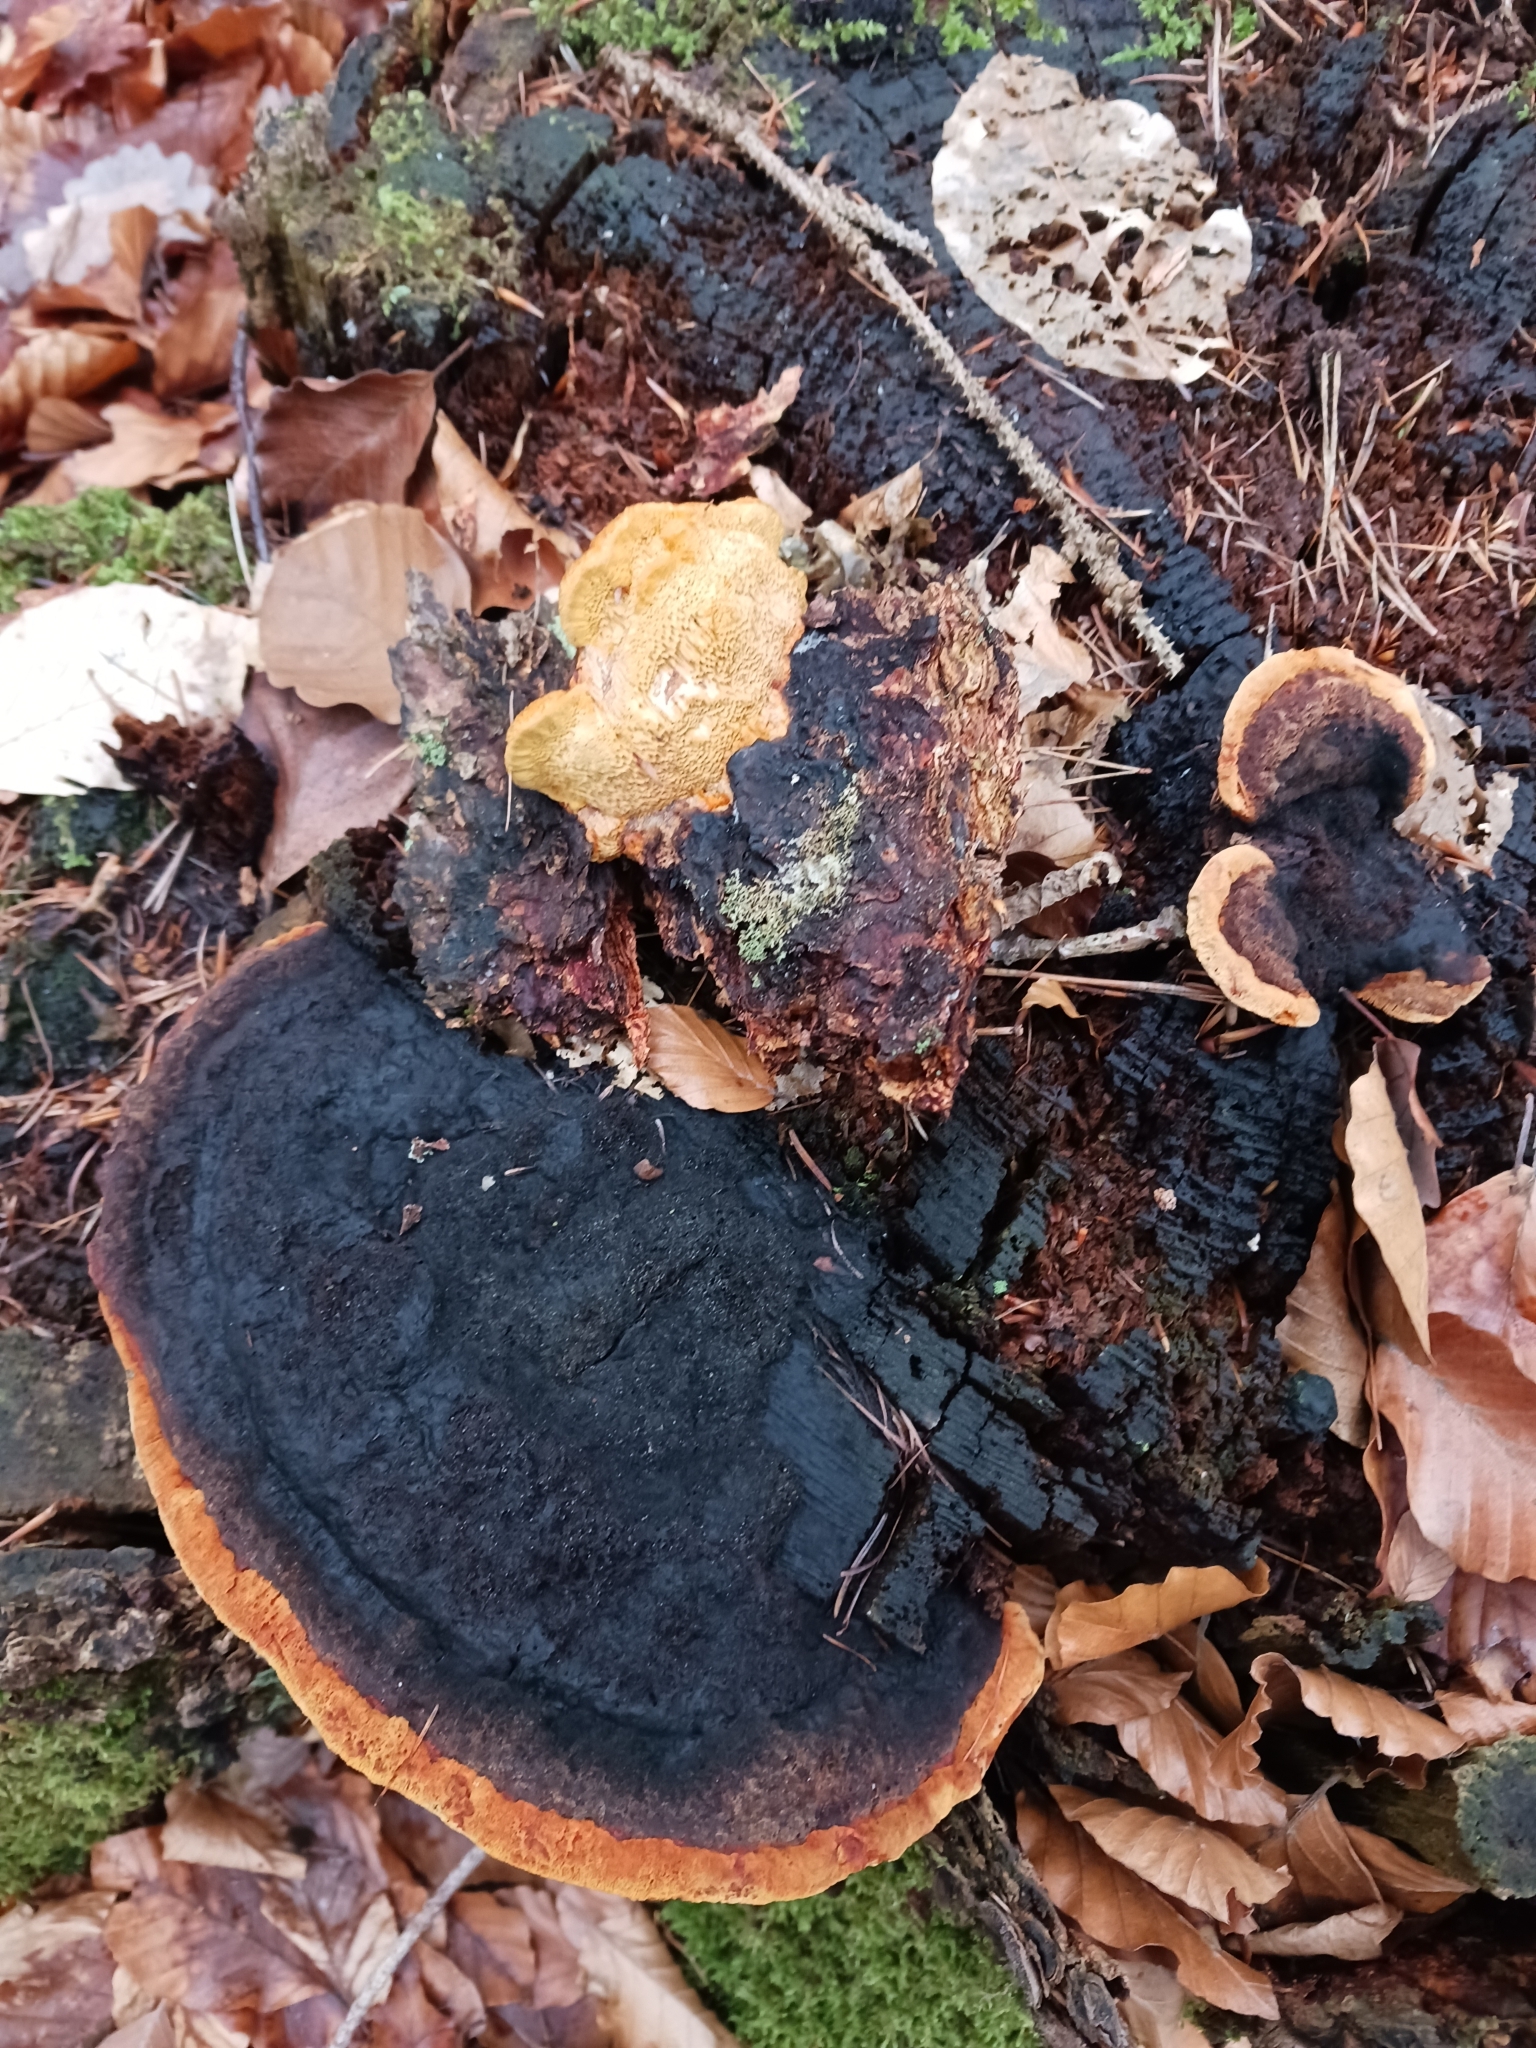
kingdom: Fungi
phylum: Basidiomycota
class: Agaricomycetes
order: Gloeophyllales
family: Gloeophyllaceae
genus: Gloeophyllum
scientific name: Gloeophyllum odoratum
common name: Anise mazegill
